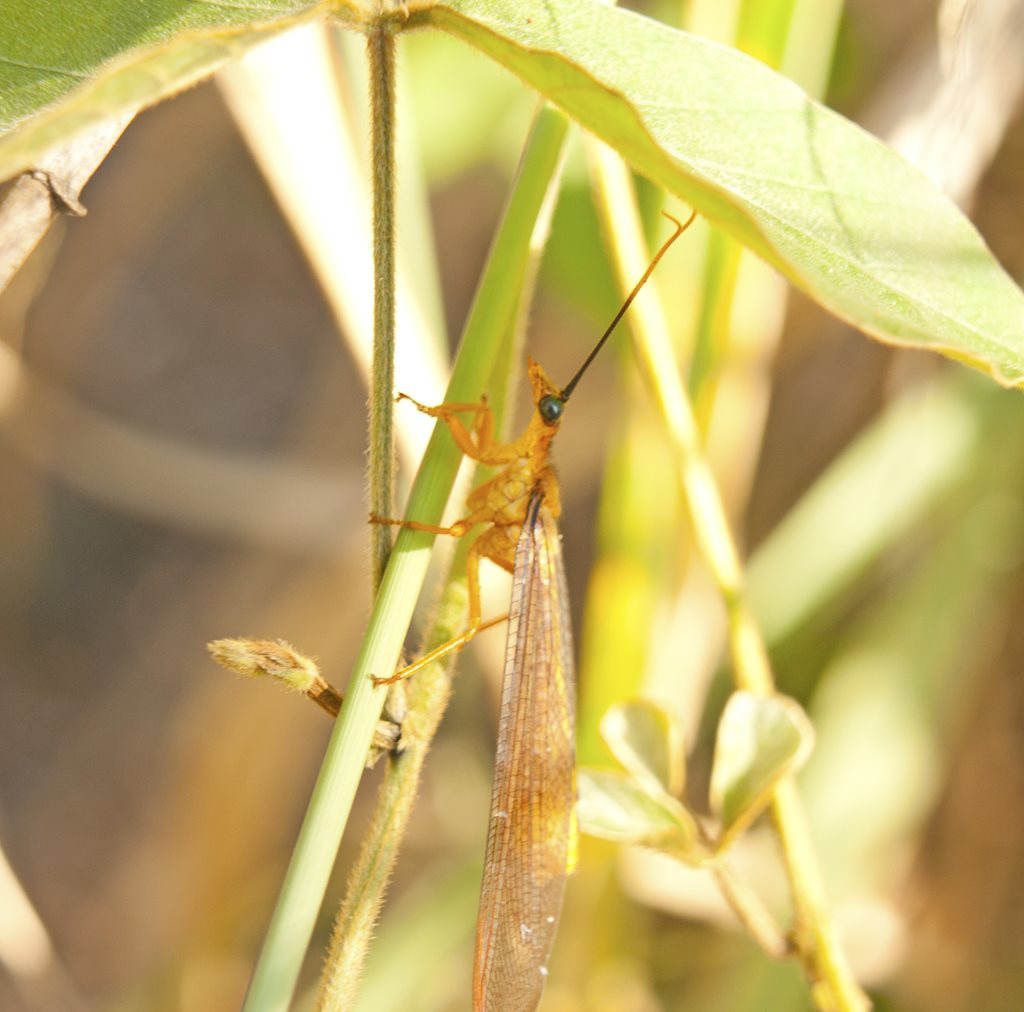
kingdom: Animalia
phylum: Arthropoda
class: Insecta
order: Neuroptera
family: Nymphidae
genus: Nymphes
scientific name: Nymphes myrmeleonoides
